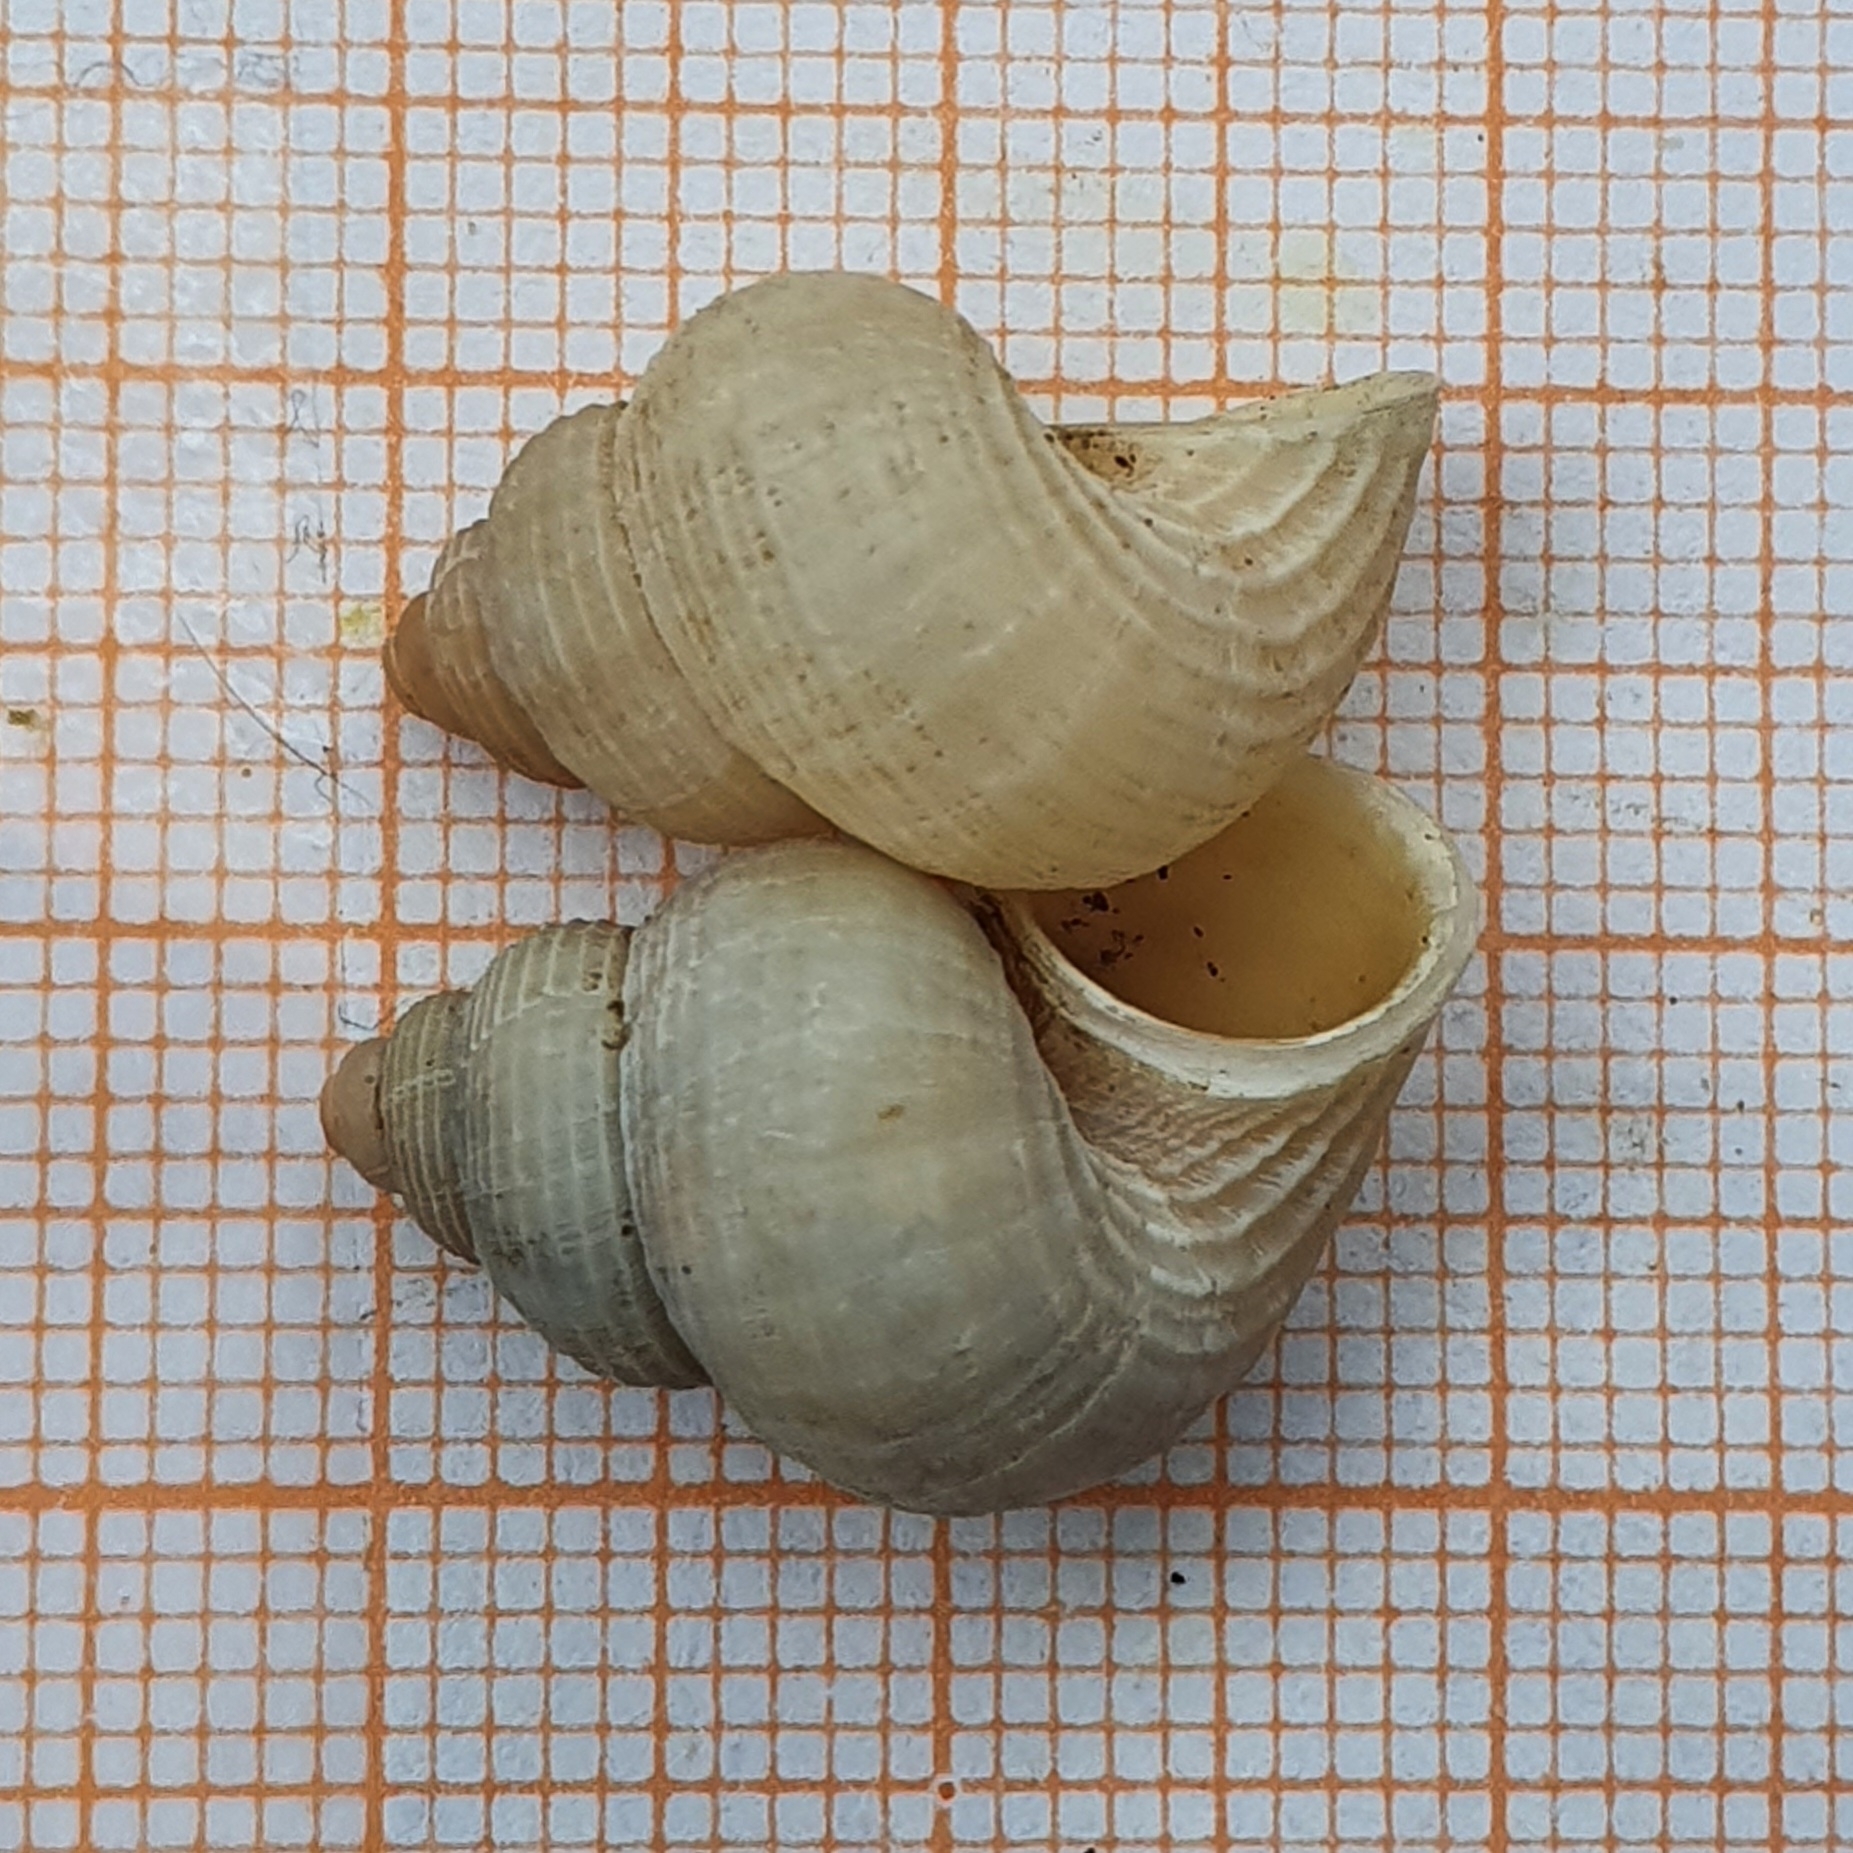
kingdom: Animalia
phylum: Mollusca
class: Gastropoda
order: Littorinimorpha
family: Pomatiidae
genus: Tudorella
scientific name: Tudorella sulcata
